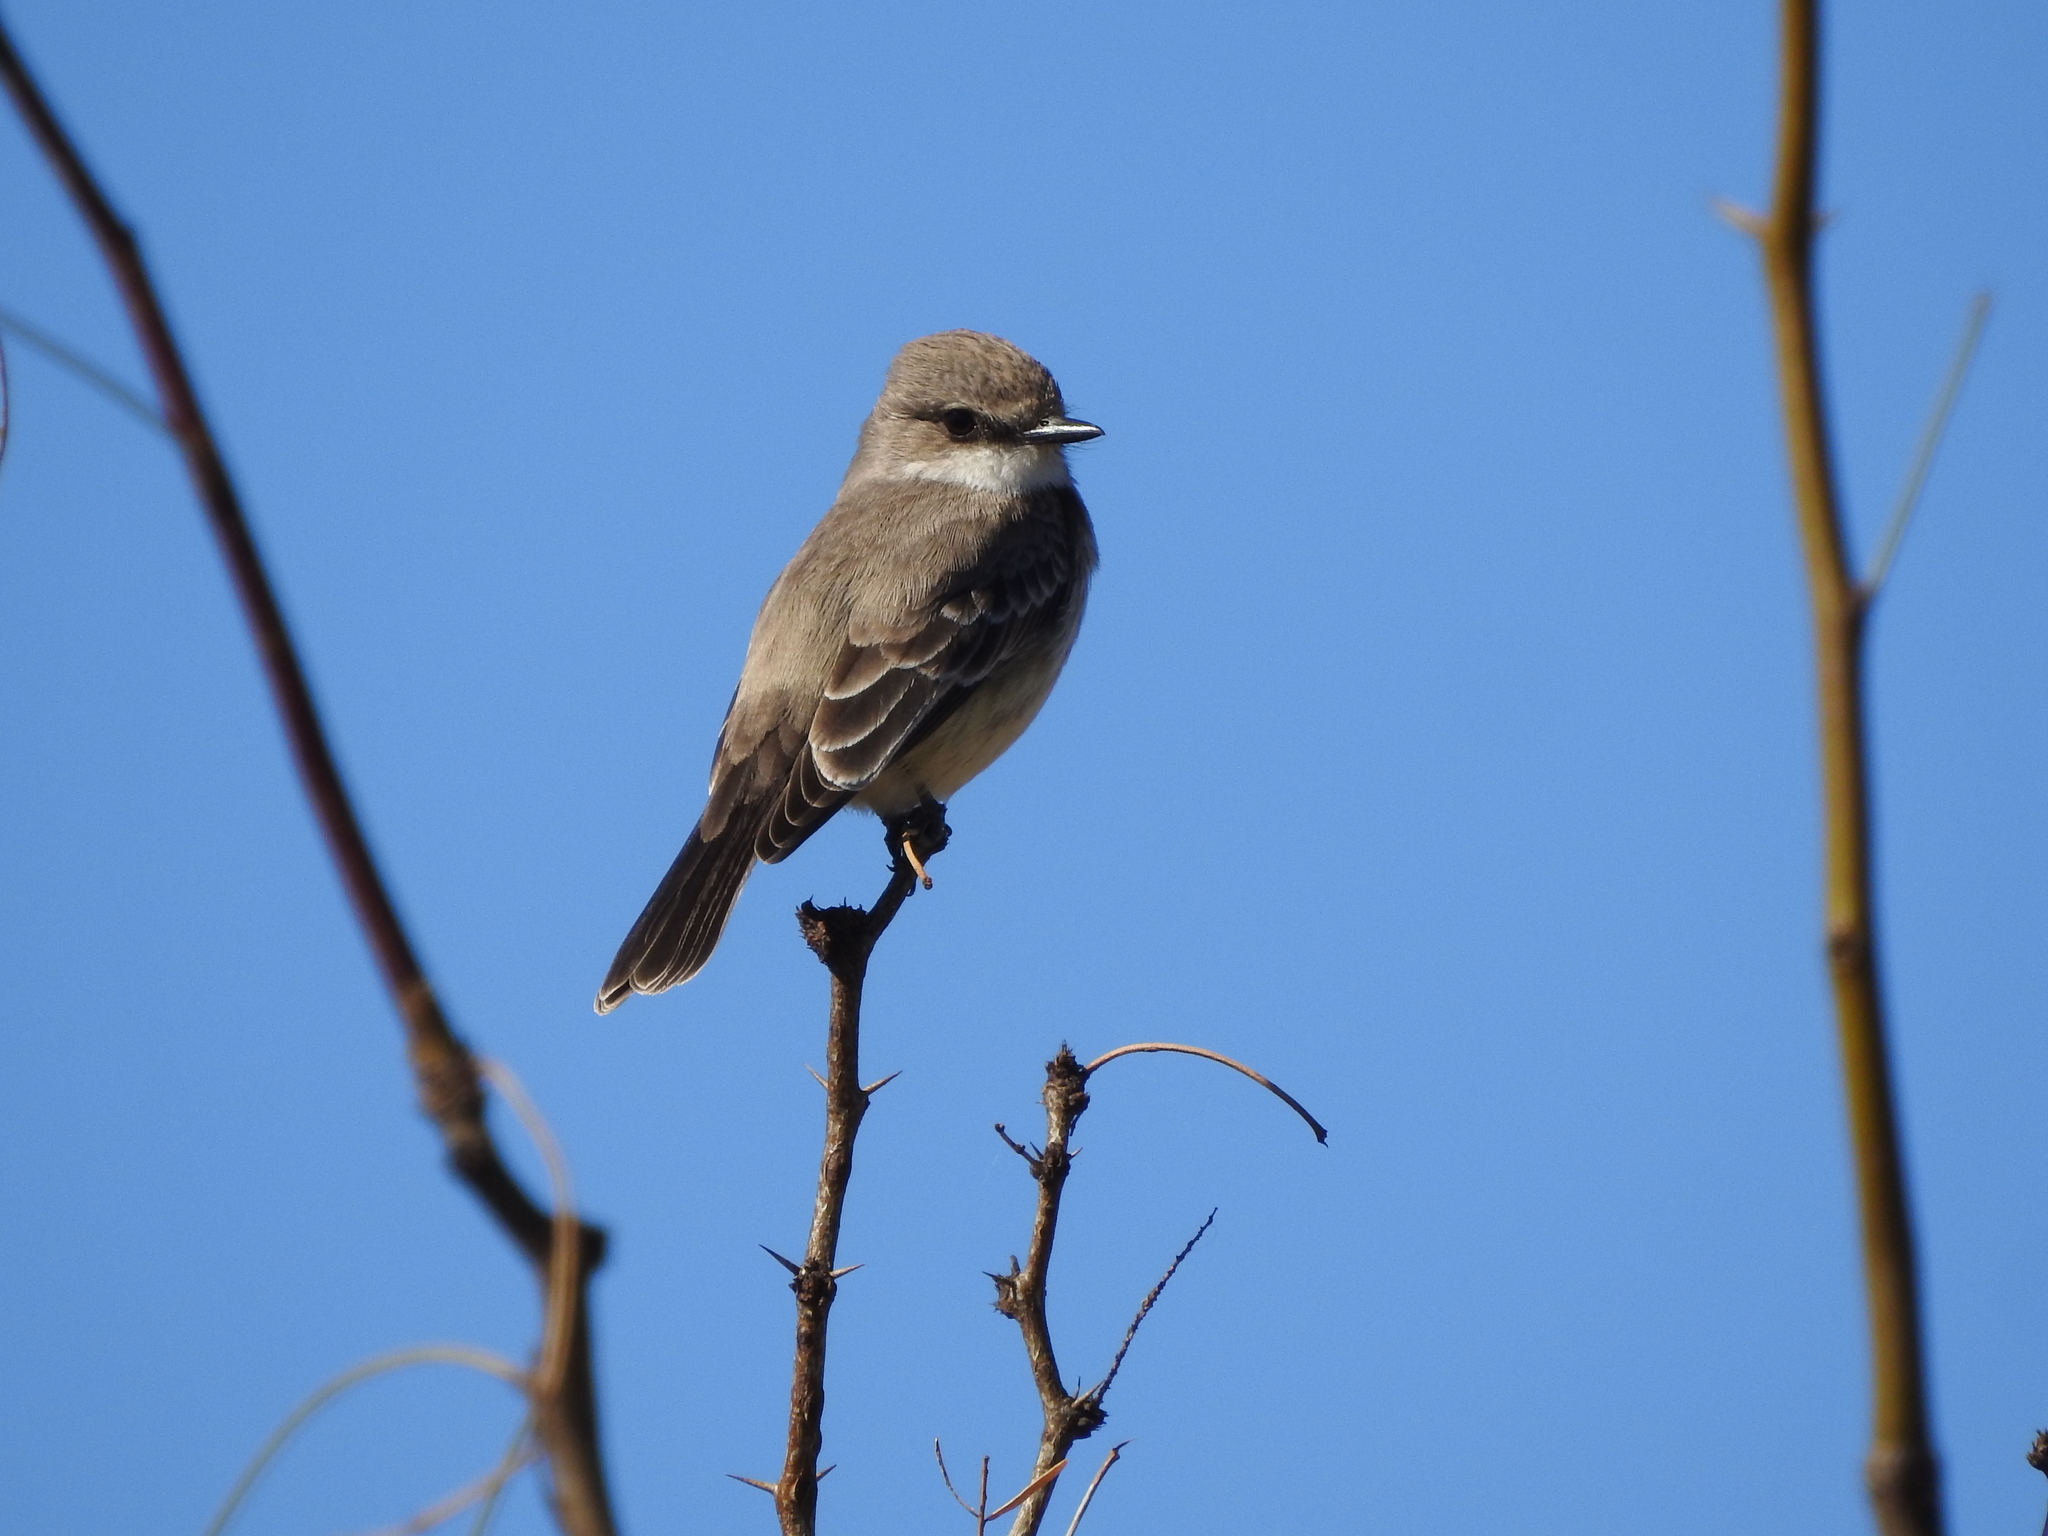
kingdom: Animalia
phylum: Chordata
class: Aves
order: Passeriformes
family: Tyrannidae
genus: Pyrocephalus
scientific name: Pyrocephalus rubinus
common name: Vermilion flycatcher
